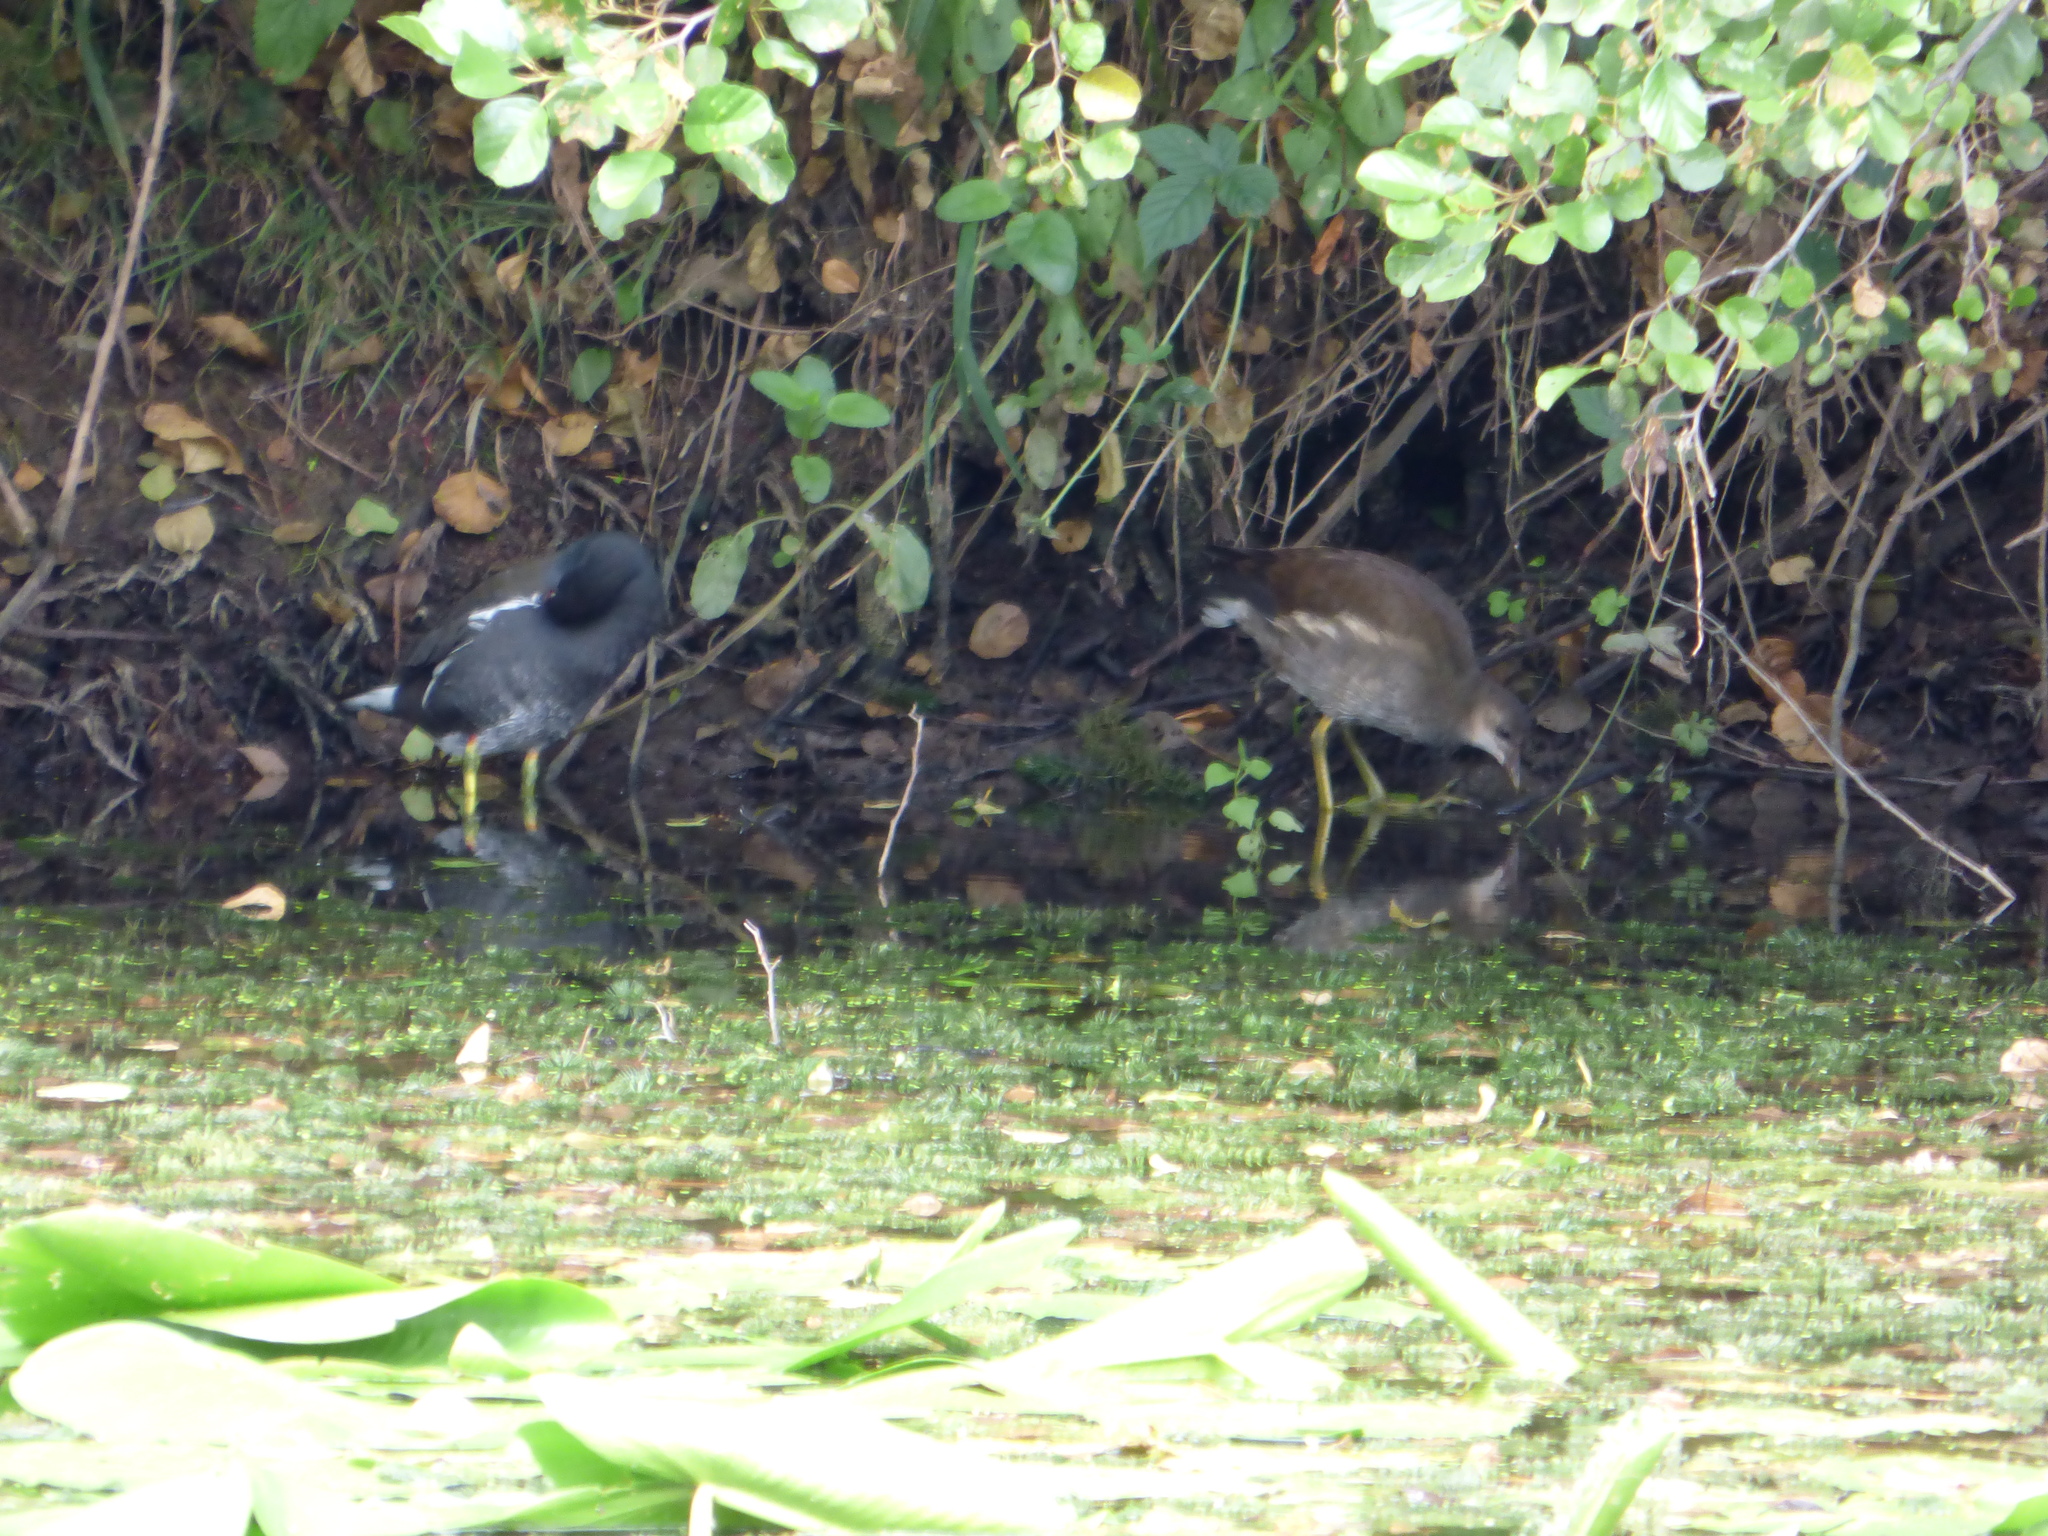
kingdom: Animalia
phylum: Chordata
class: Aves
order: Gruiformes
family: Rallidae
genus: Gallinula
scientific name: Gallinula chloropus
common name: Common moorhen
